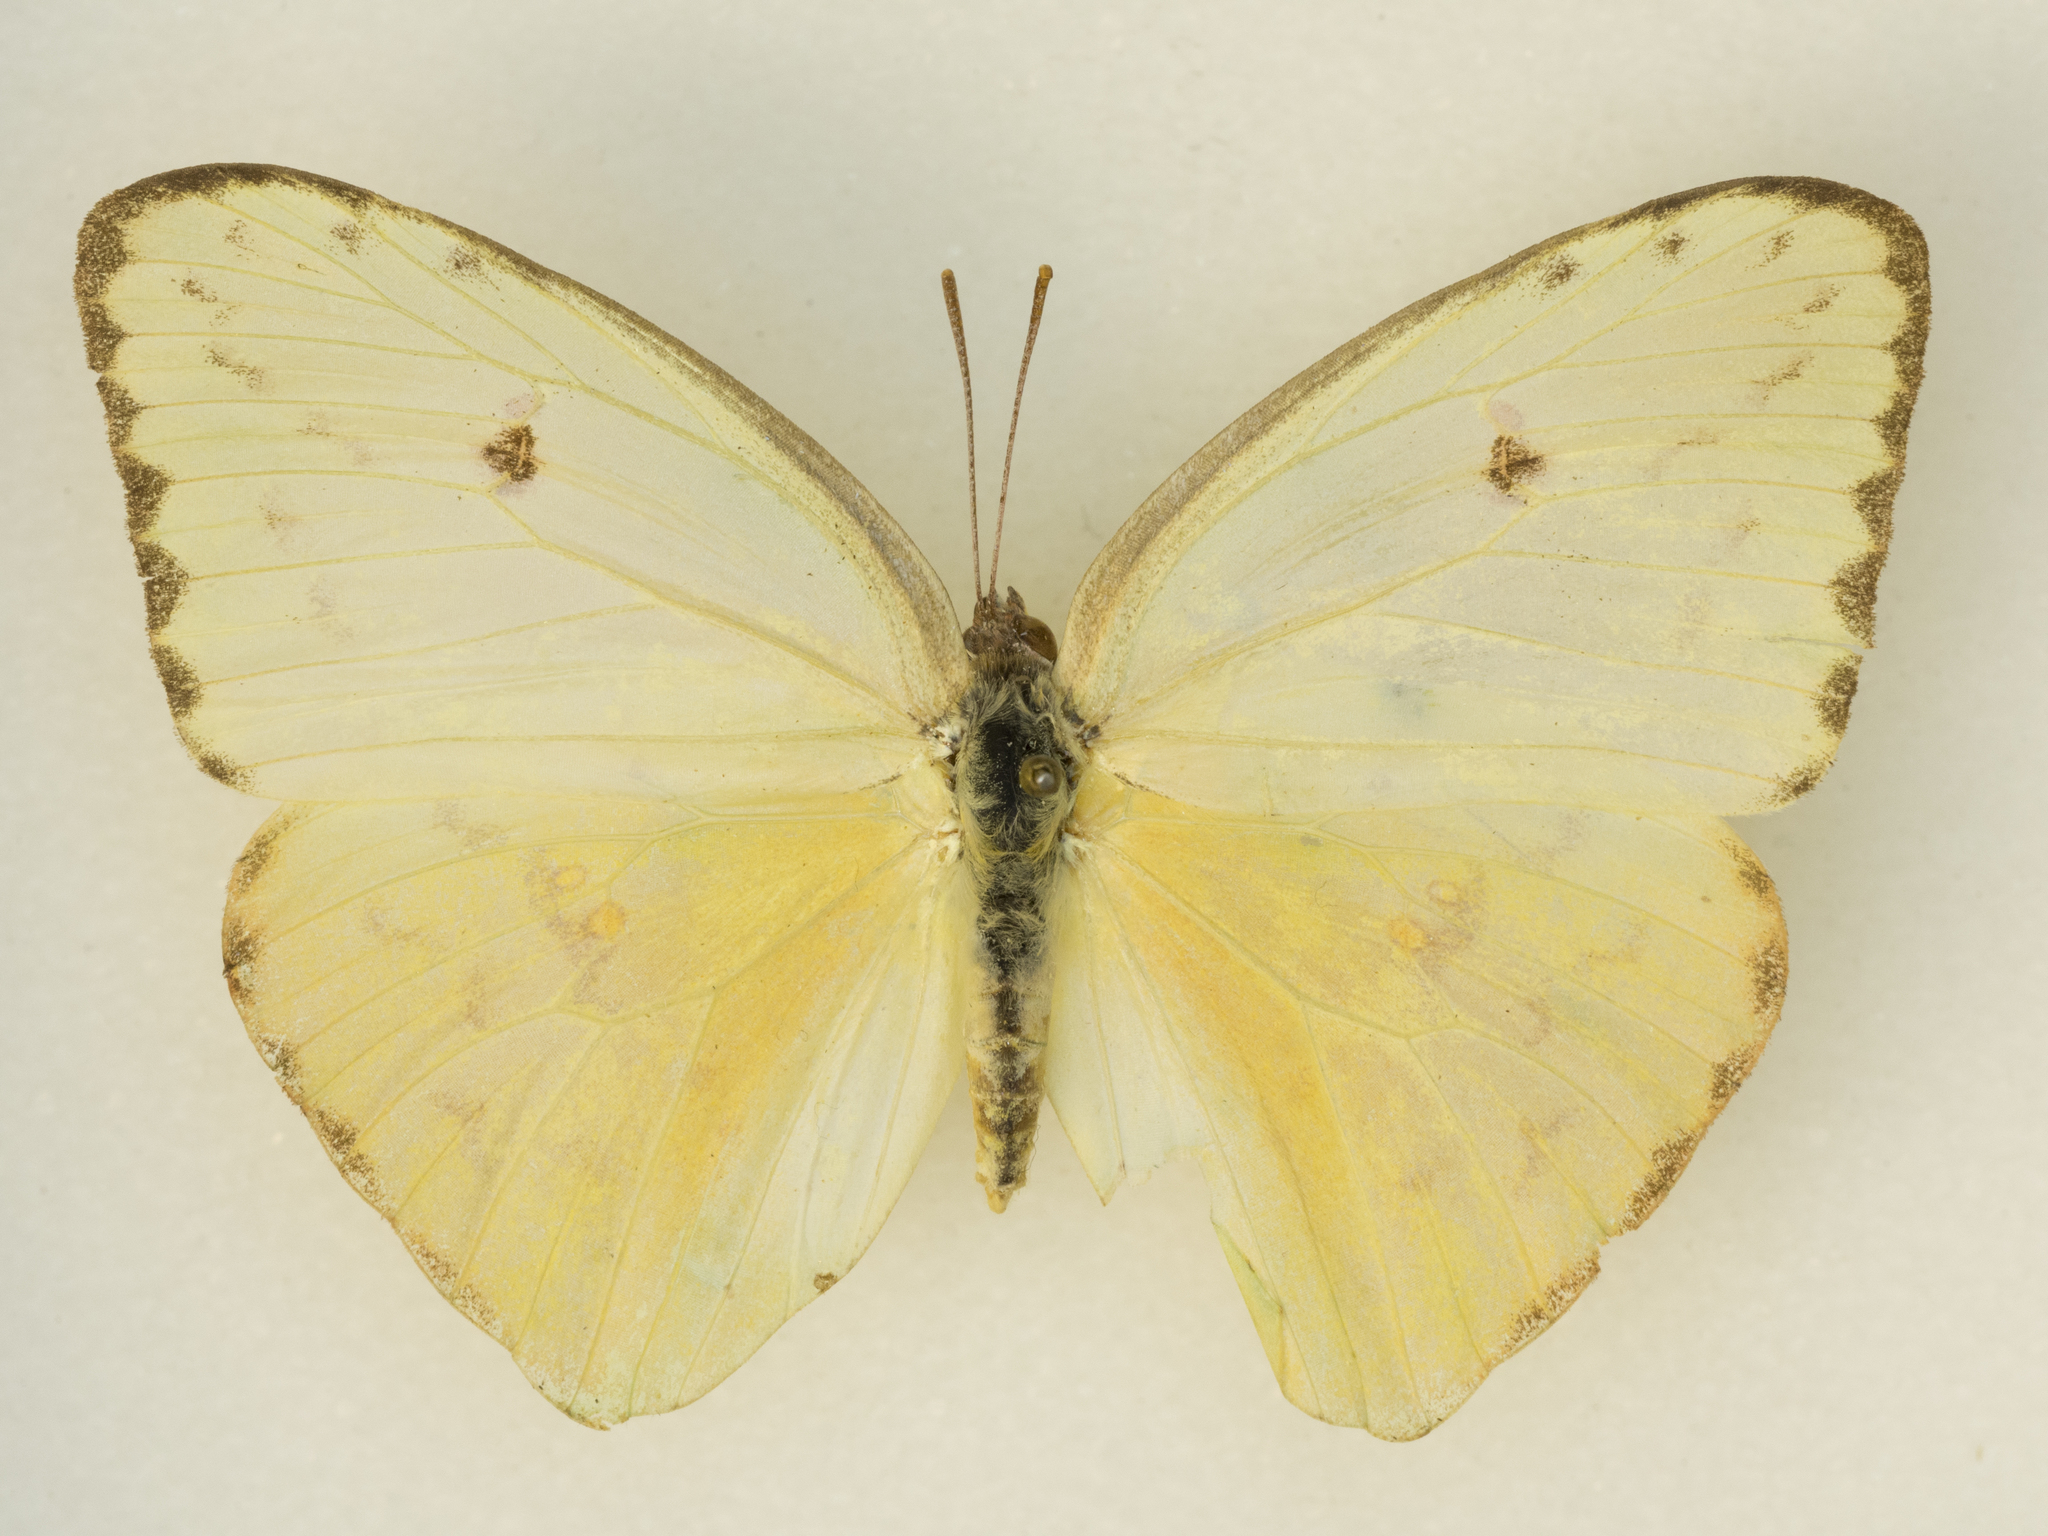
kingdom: Animalia
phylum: Arthropoda
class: Insecta
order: Lepidoptera
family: Pieridae
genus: Phoebis
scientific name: Phoebis marcellina
